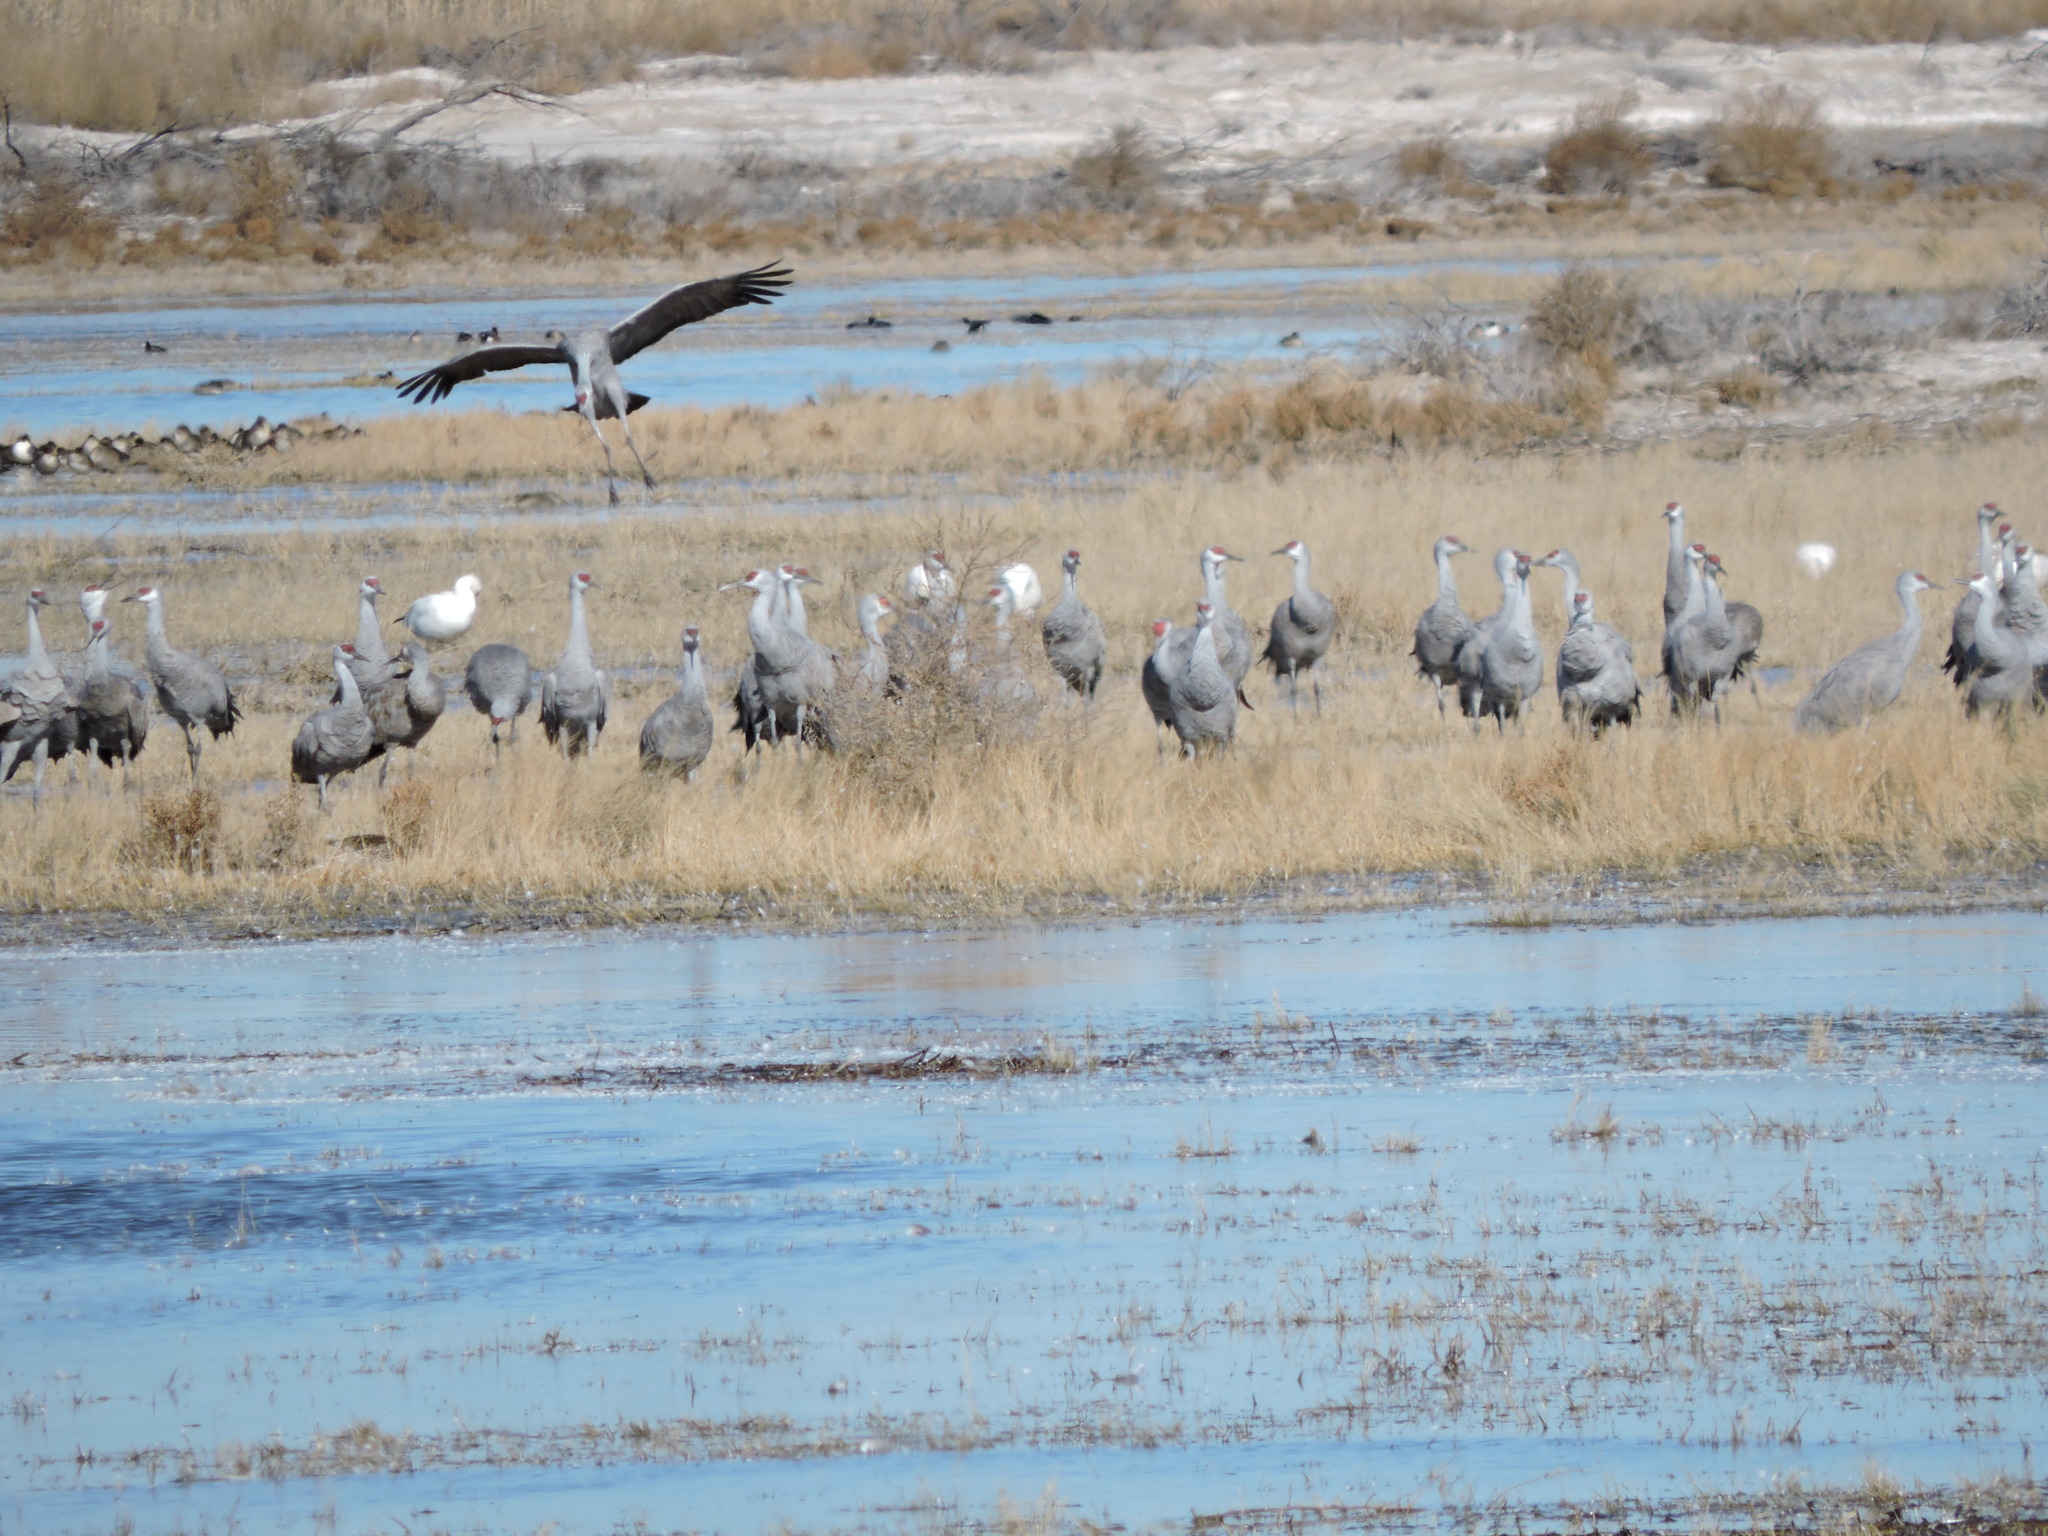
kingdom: Animalia
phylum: Chordata
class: Aves
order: Gruiformes
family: Gruidae
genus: Grus
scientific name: Grus canadensis
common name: Sandhill crane
